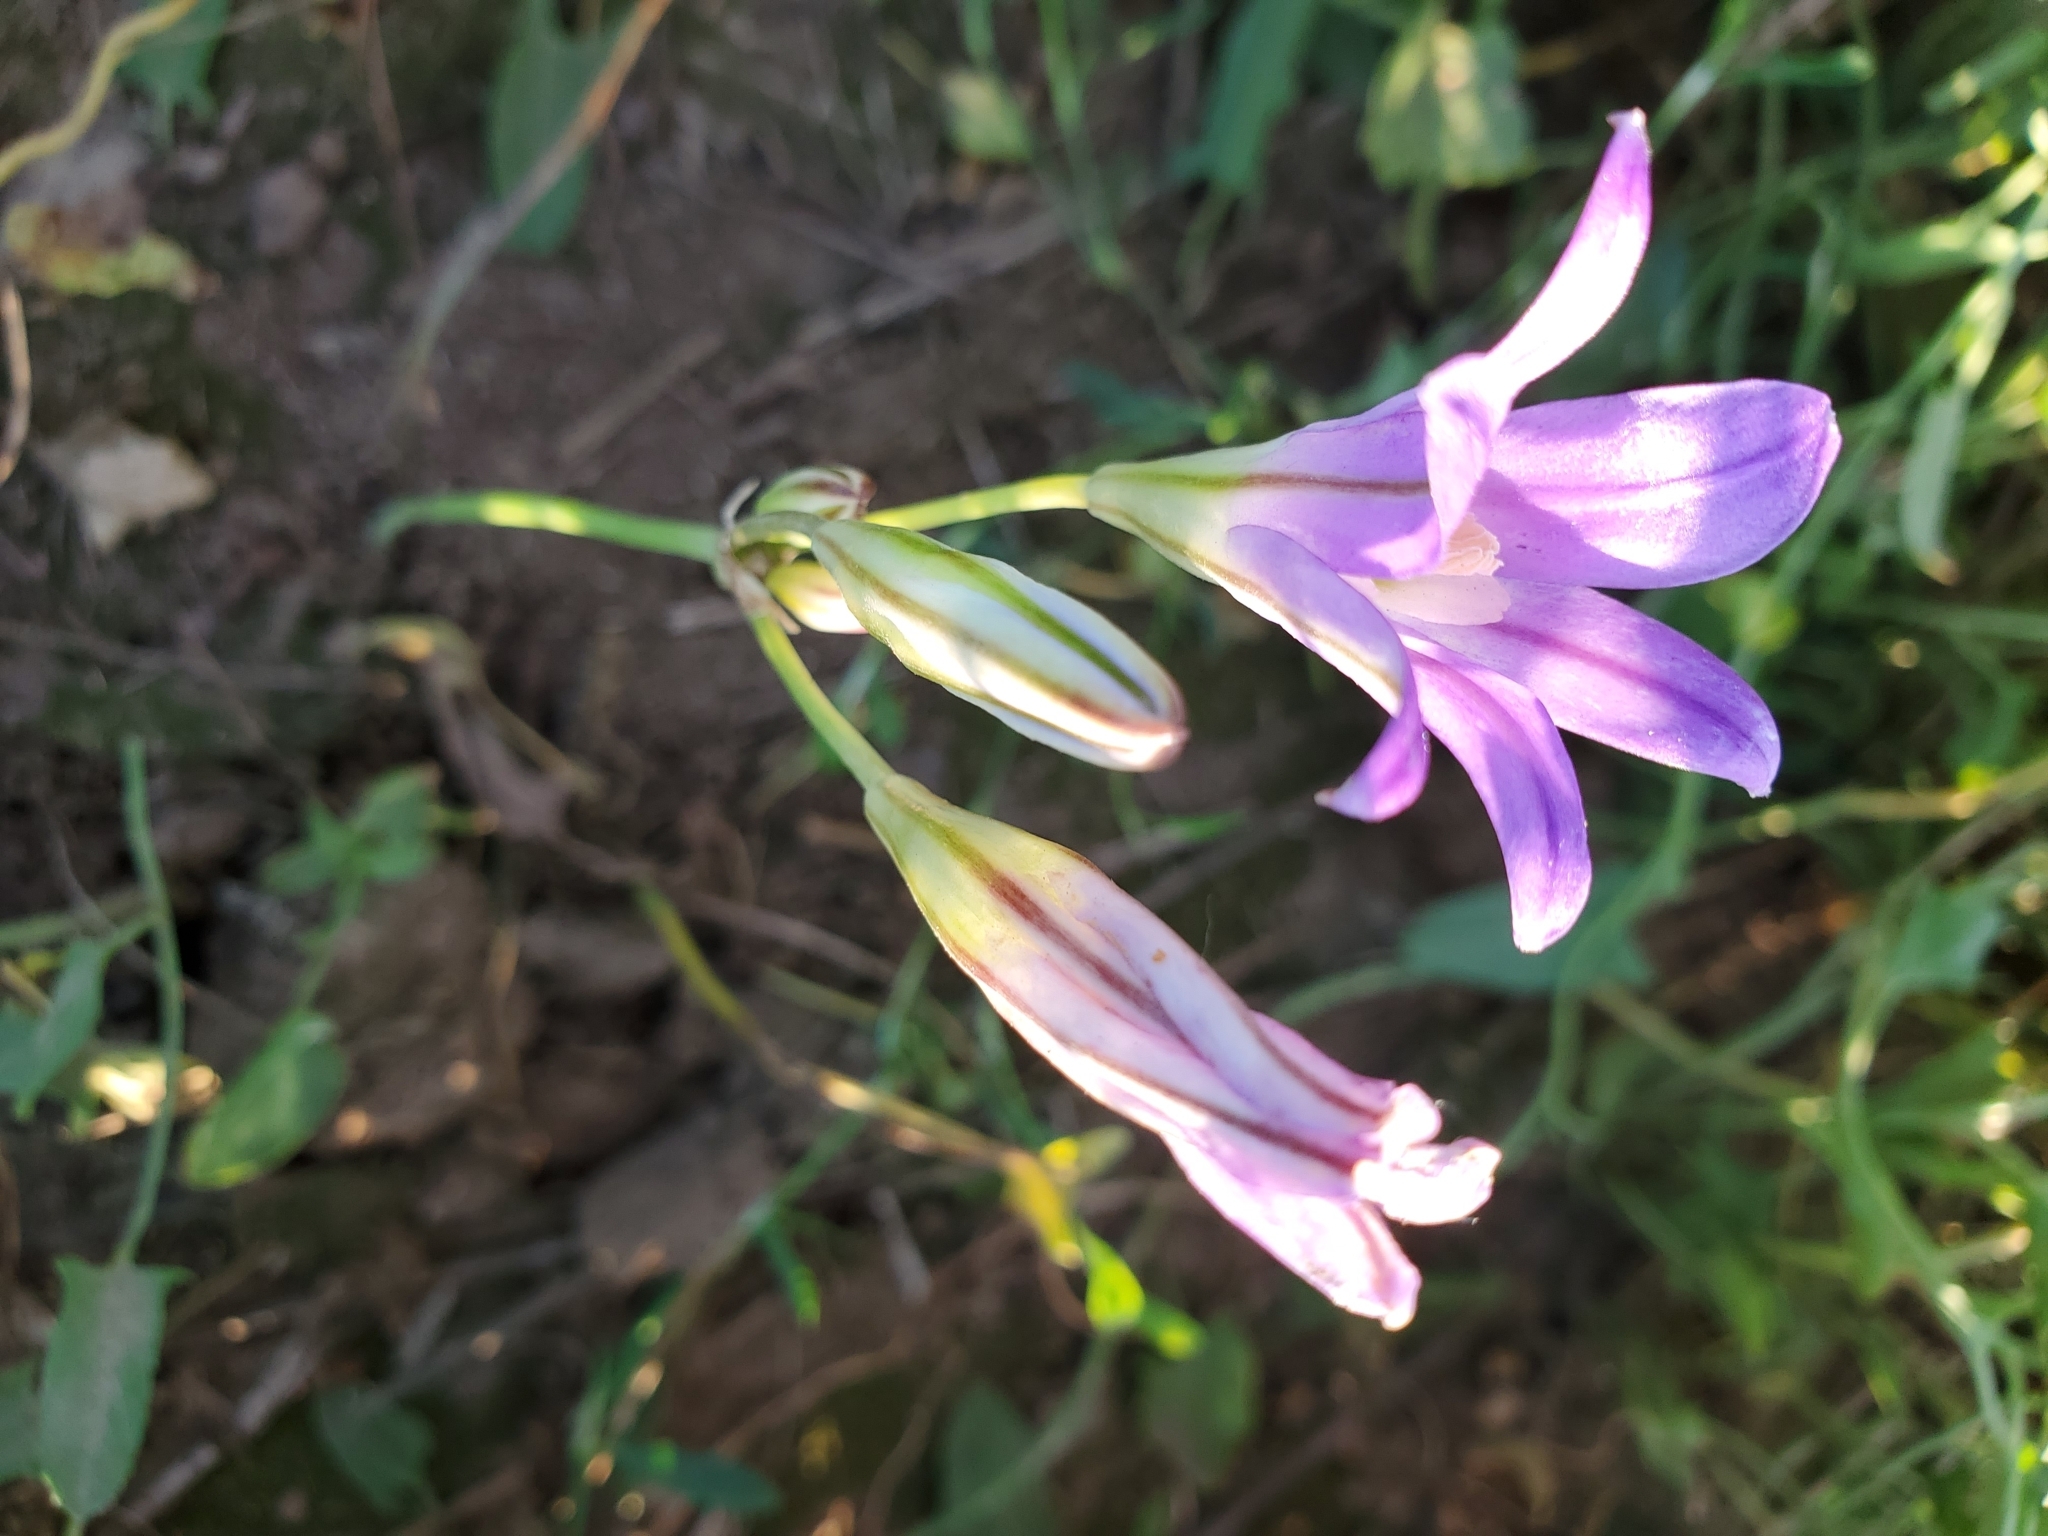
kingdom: Plantae
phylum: Tracheophyta
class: Liliopsida
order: Asparagales
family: Asparagaceae
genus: Brodiaea
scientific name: Brodiaea elegans
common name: Elegant cluster-lily
